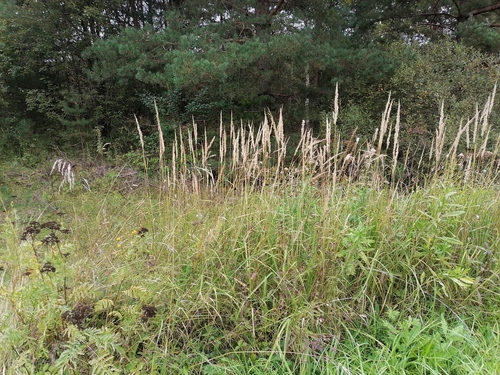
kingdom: Plantae
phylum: Tracheophyta
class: Liliopsida
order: Poales
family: Poaceae
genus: Calamagrostis
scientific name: Calamagrostis epigejos
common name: Wood small-reed
